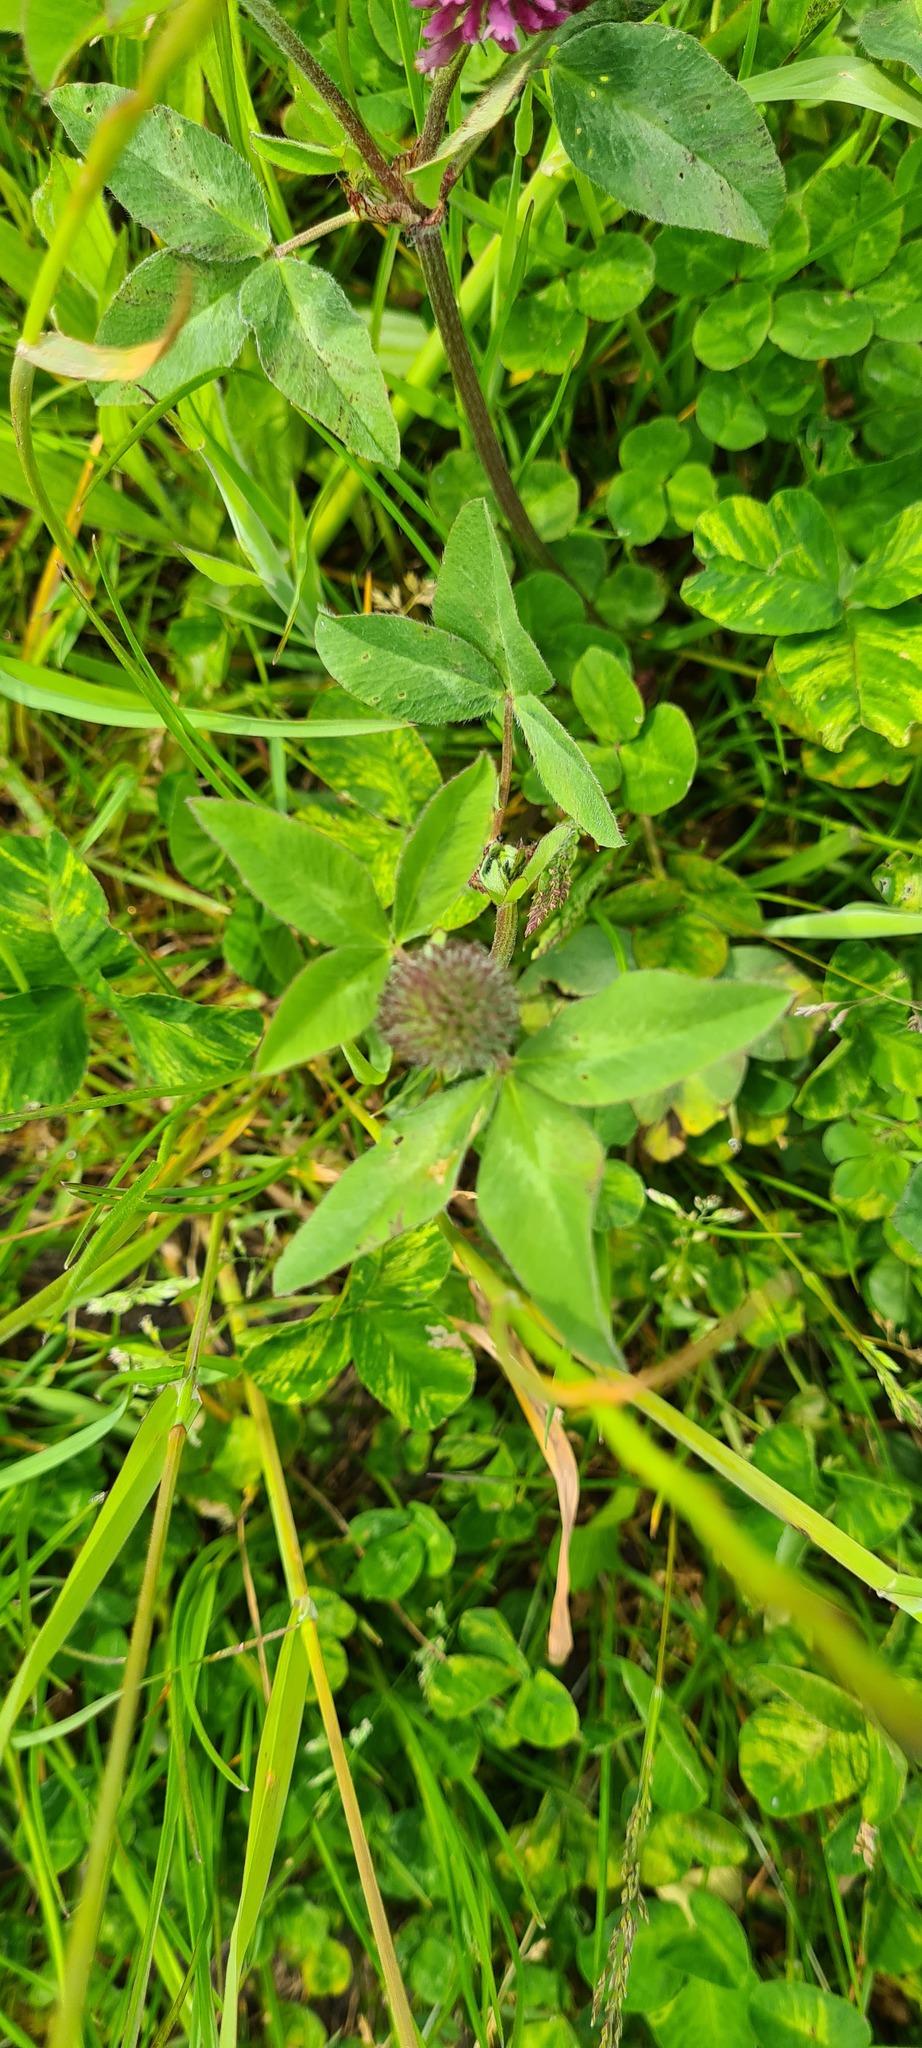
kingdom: Plantae
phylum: Tracheophyta
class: Magnoliopsida
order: Fabales
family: Fabaceae
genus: Trifolium
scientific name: Trifolium pratense
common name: Red clover
